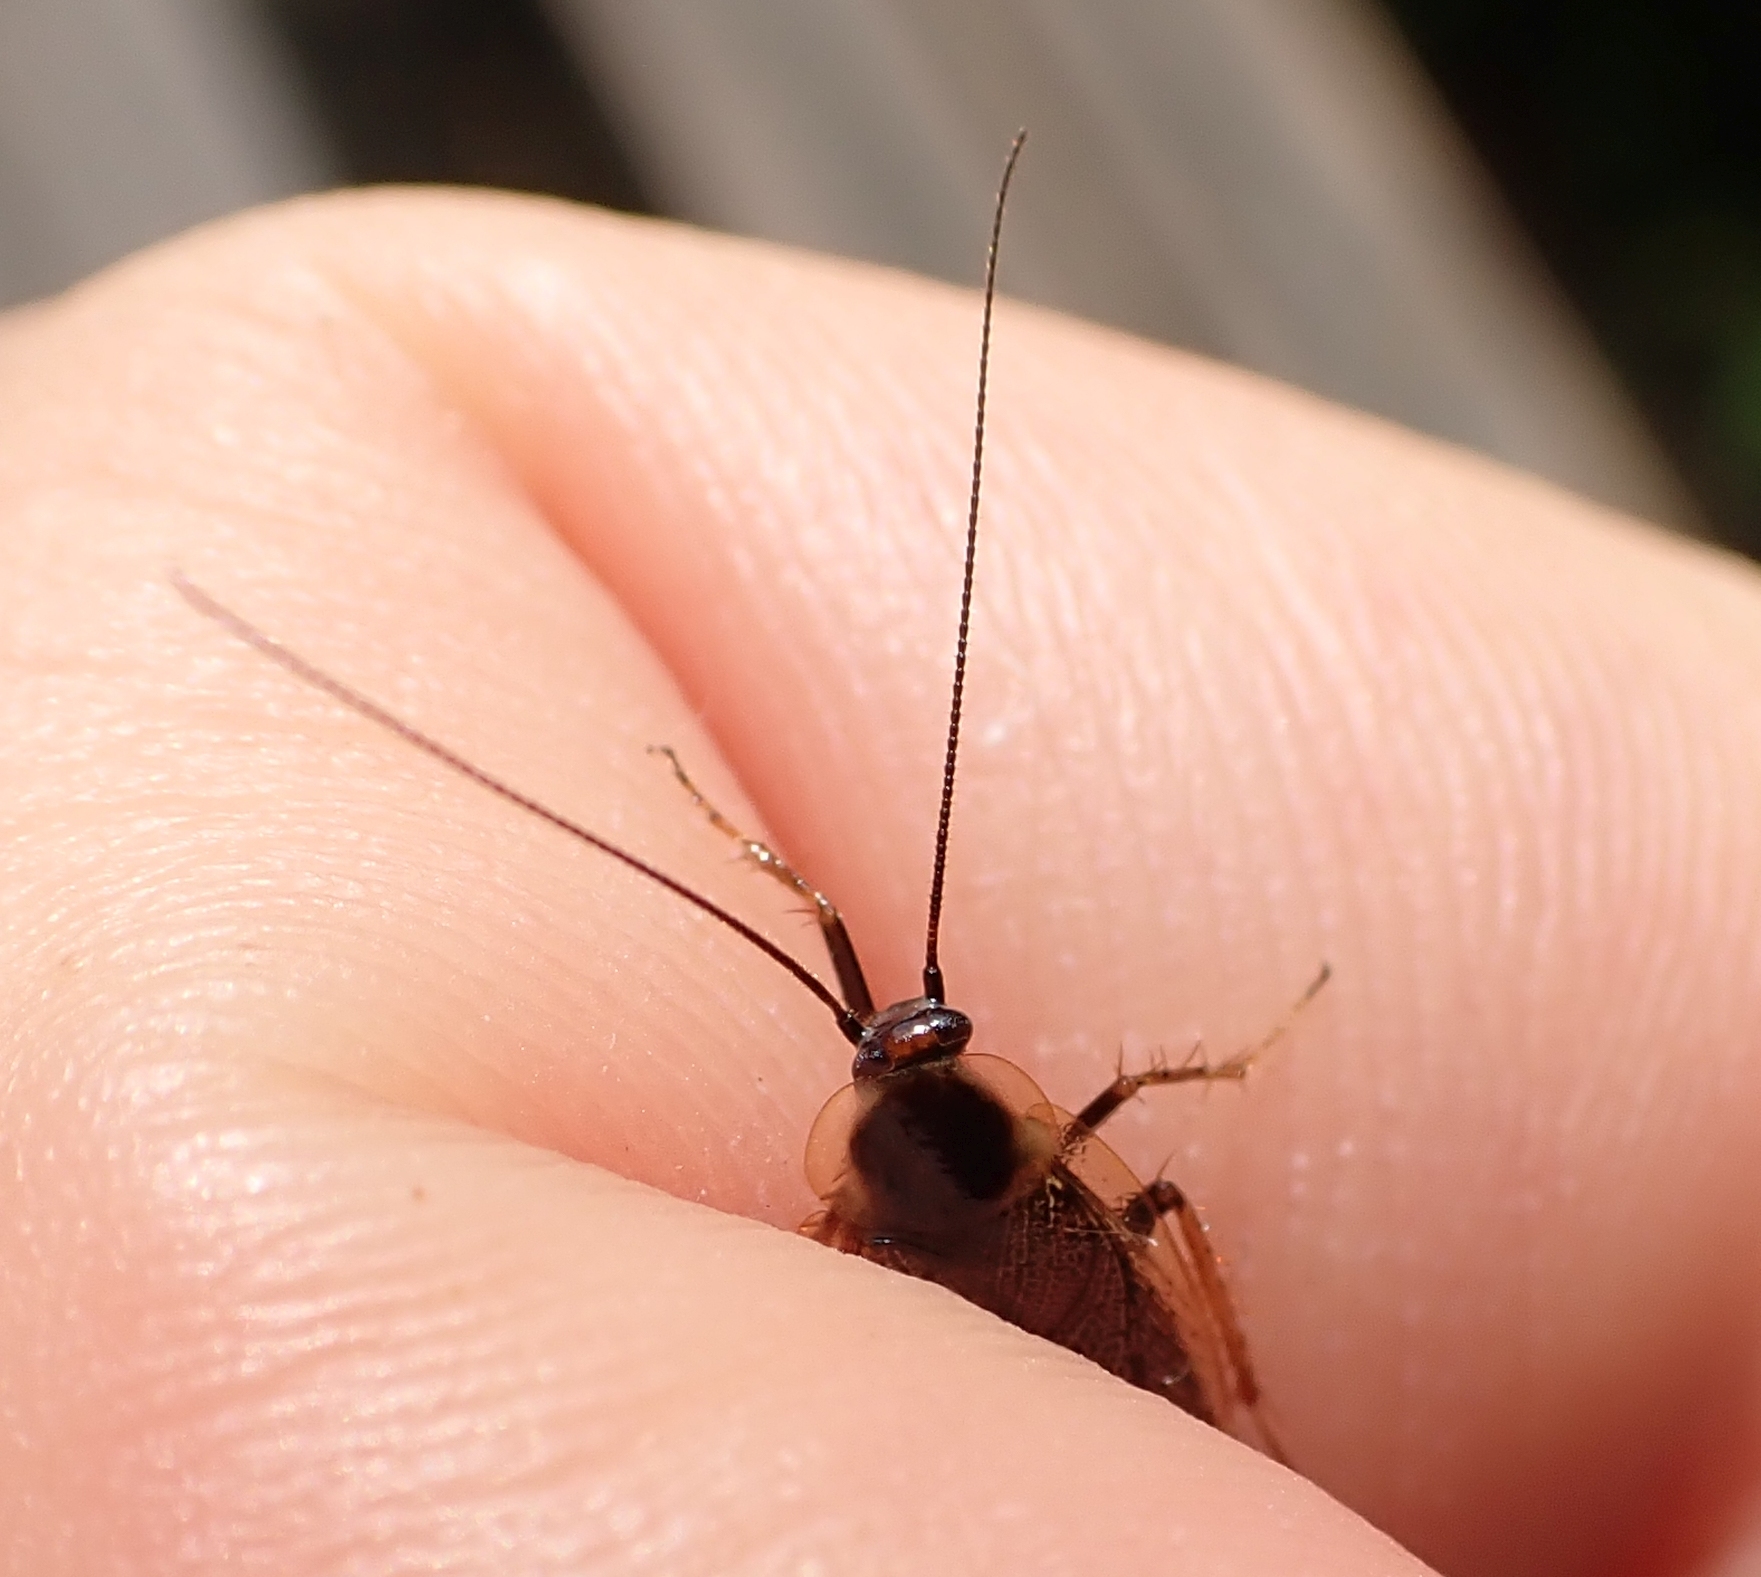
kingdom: Animalia
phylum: Arthropoda
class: Insecta
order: Blattodea
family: Ectobiidae
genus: Ectobius
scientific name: Ectobius lapponicus
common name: Dusky cockroach
